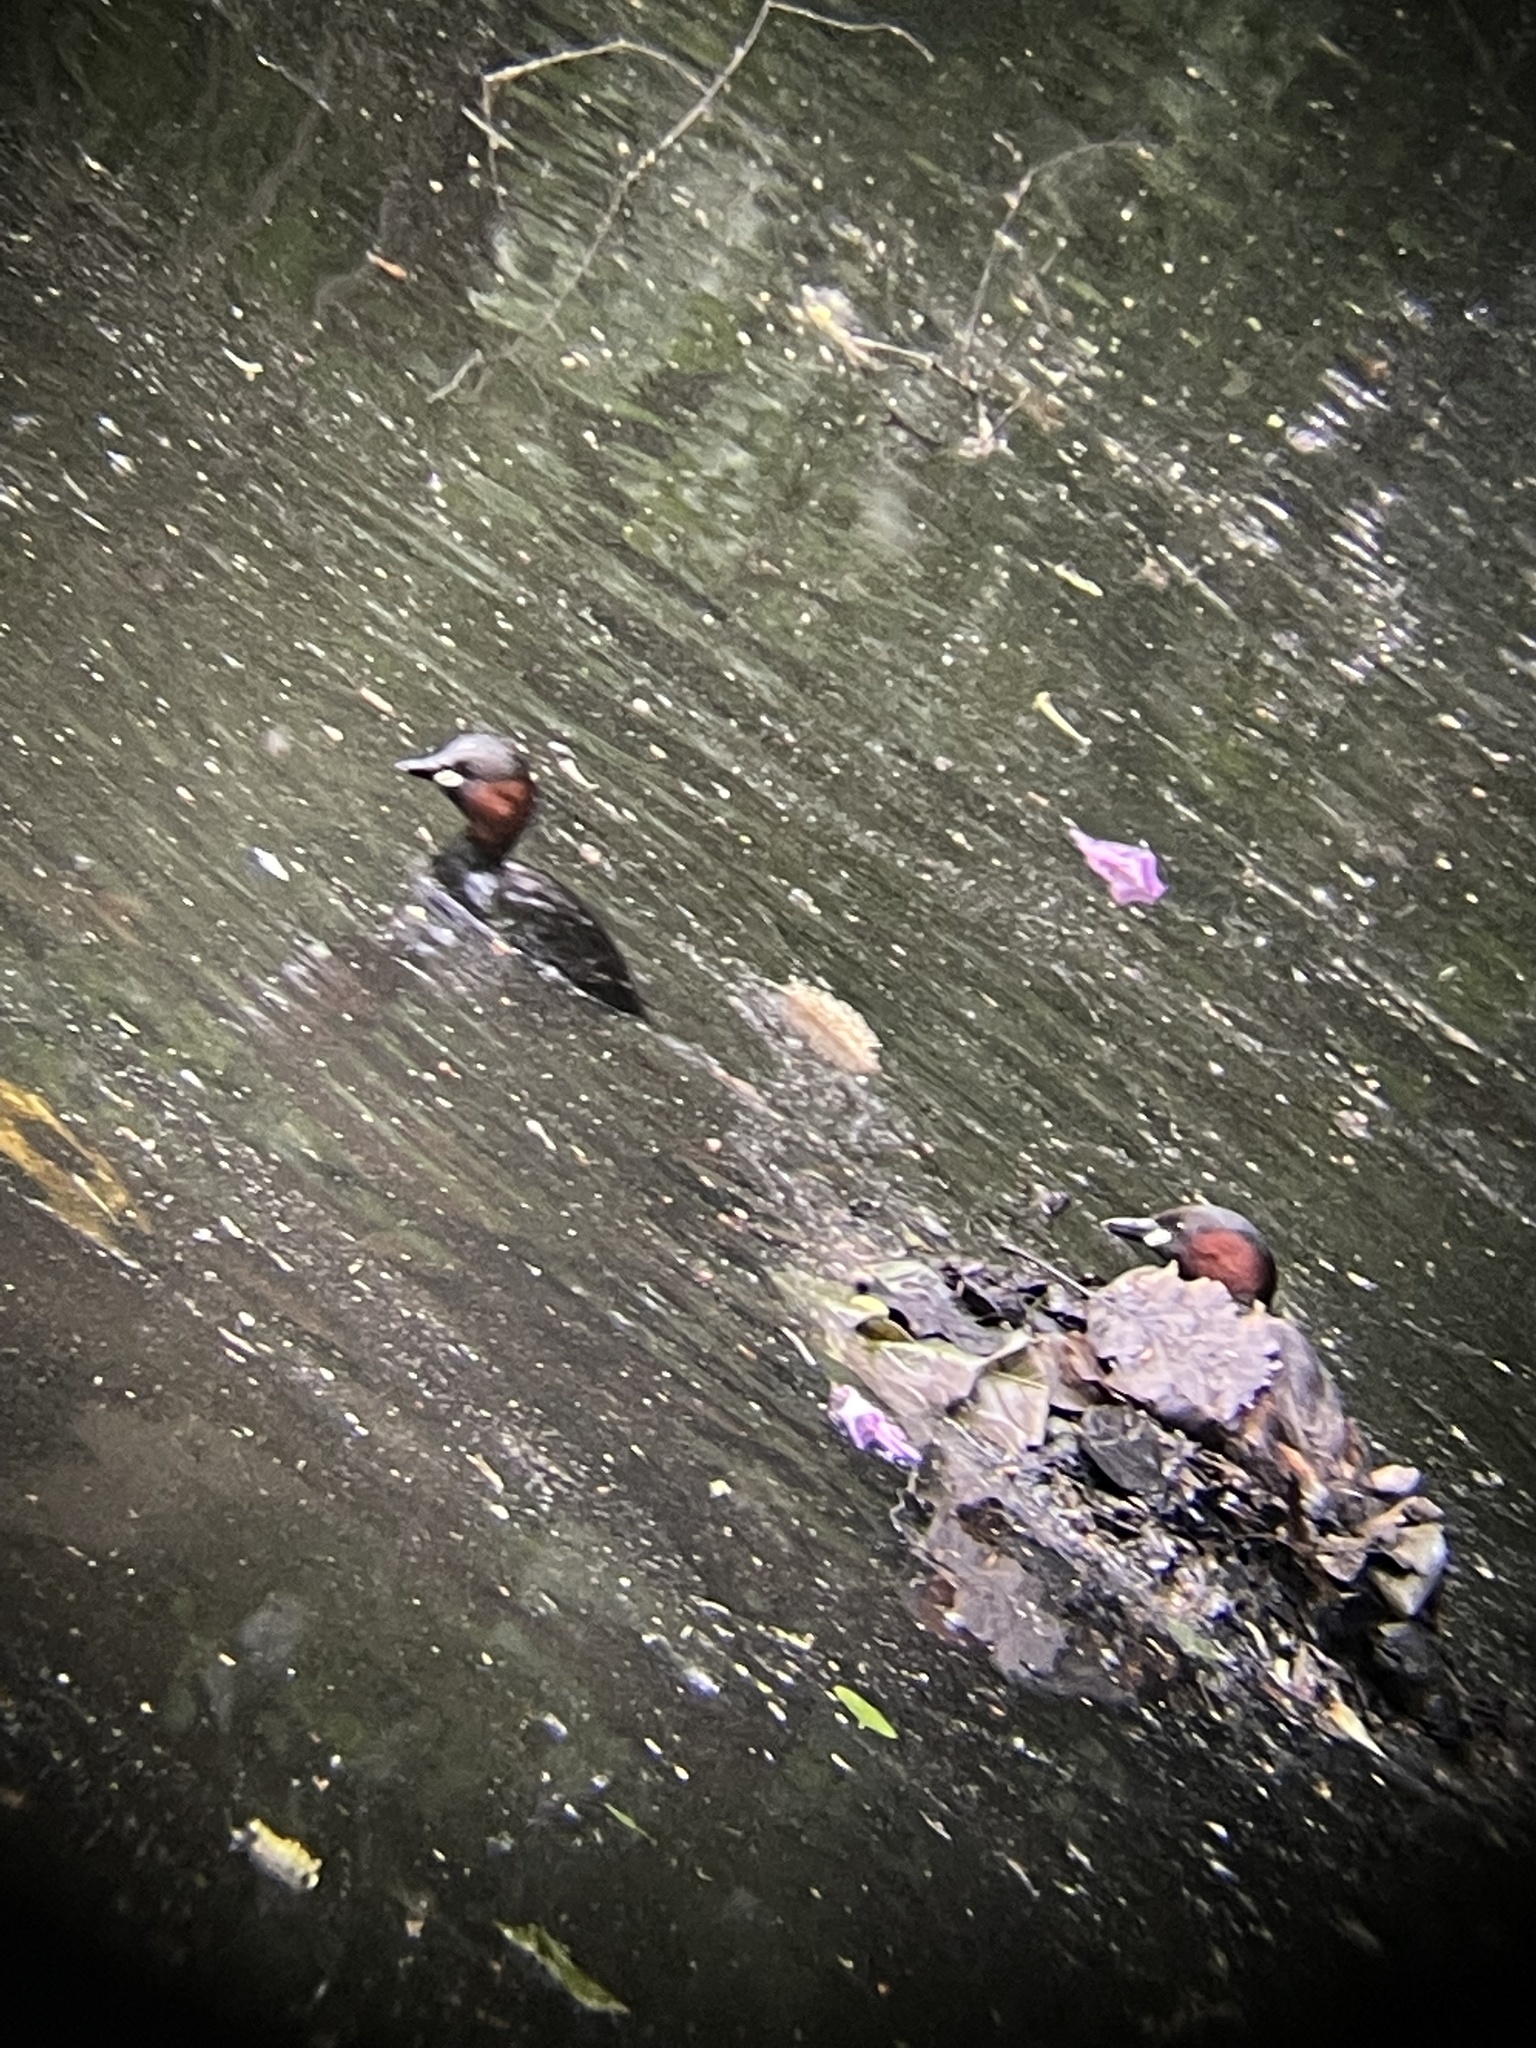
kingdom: Animalia
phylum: Chordata
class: Aves
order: Podicipediformes
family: Podicipedidae
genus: Tachybaptus
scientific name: Tachybaptus ruficollis
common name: Little grebe
